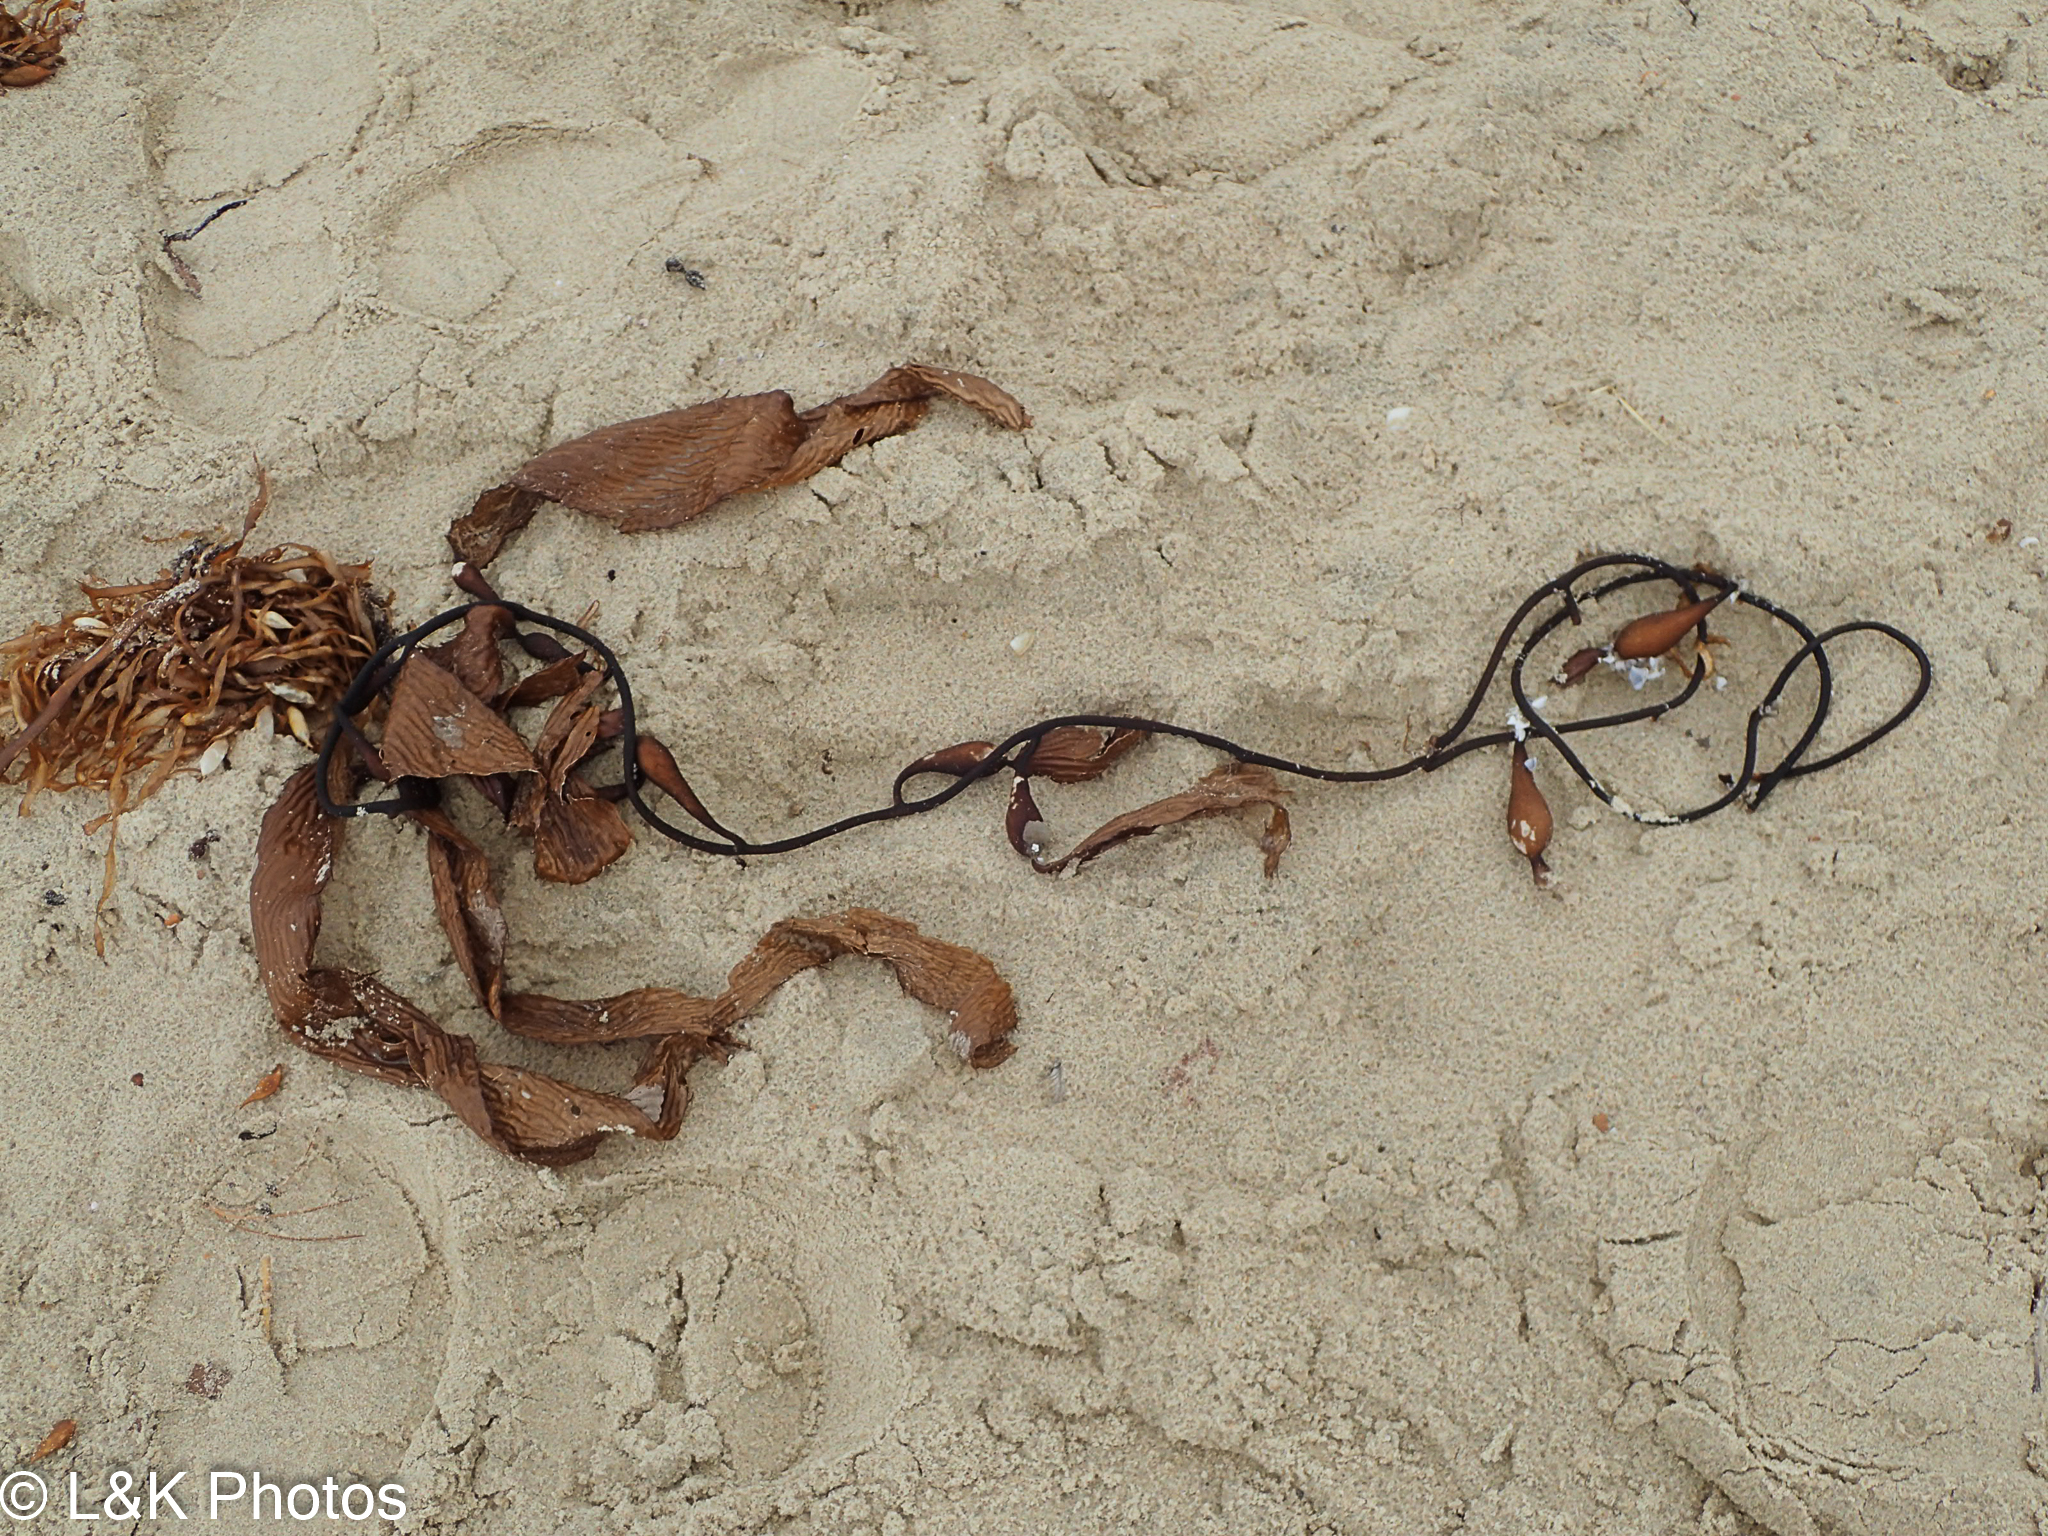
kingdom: Chromista
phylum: Ochrophyta
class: Phaeophyceae
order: Laminariales
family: Laminariaceae
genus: Macrocystis
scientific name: Macrocystis pyrifera
